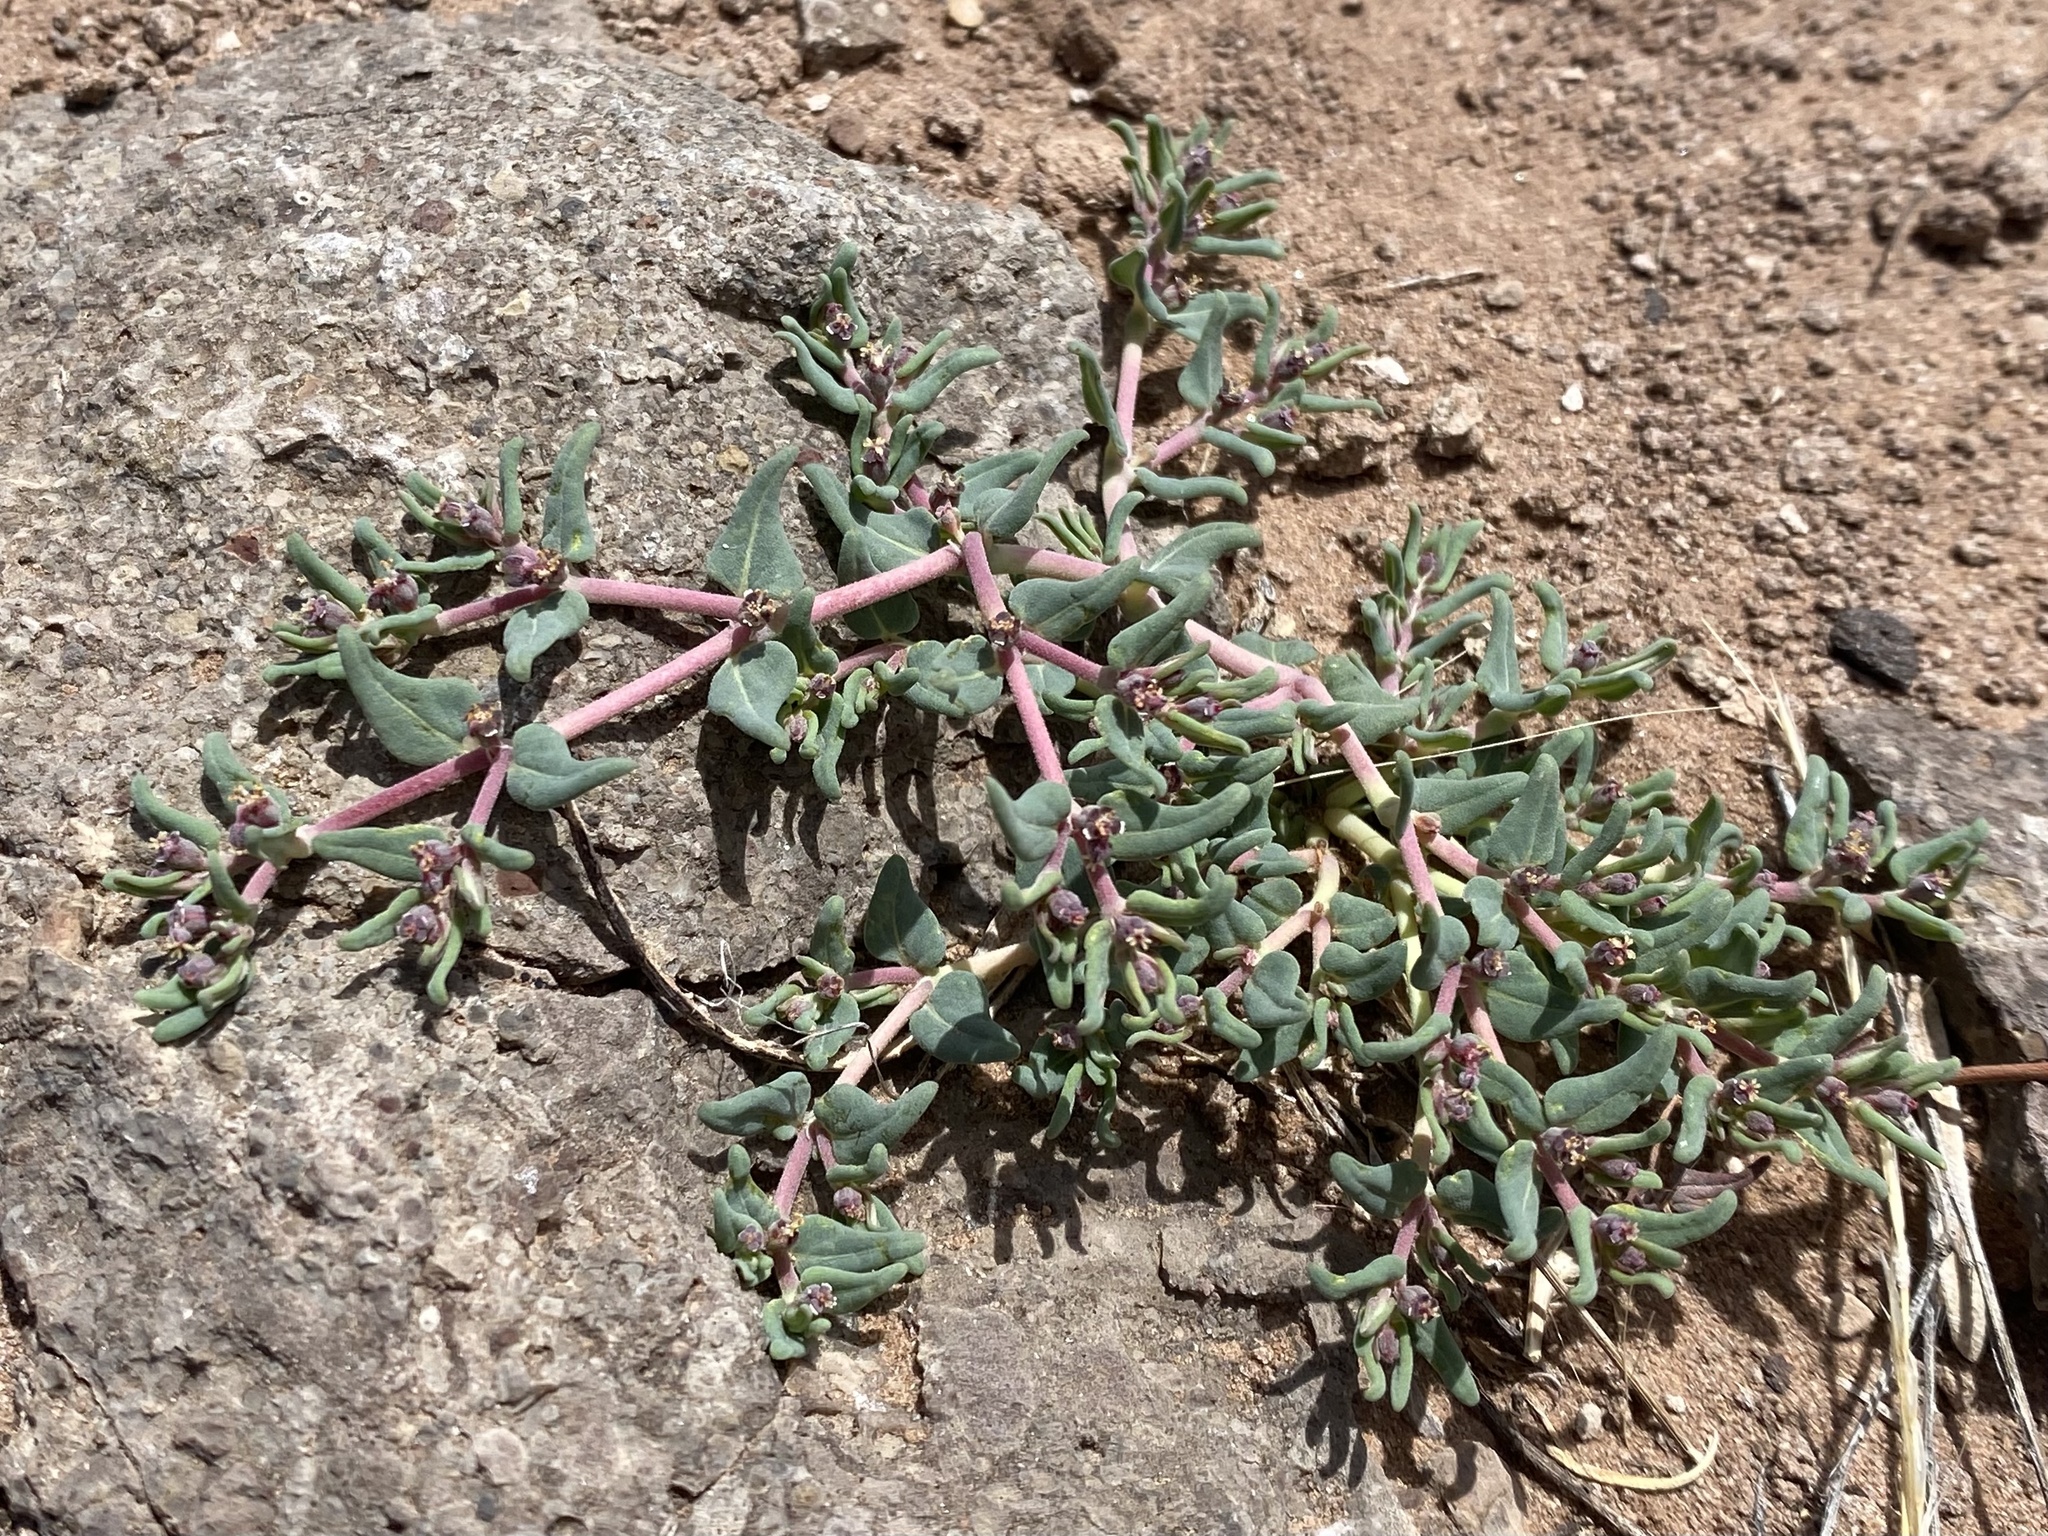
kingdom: Plantae
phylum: Tracheophyta
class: Magnoliopsida
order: Malpighiales
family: Euphorbiaceae
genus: Euphorbia
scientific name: Euphorbia lata
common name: Hoary euphorbia
